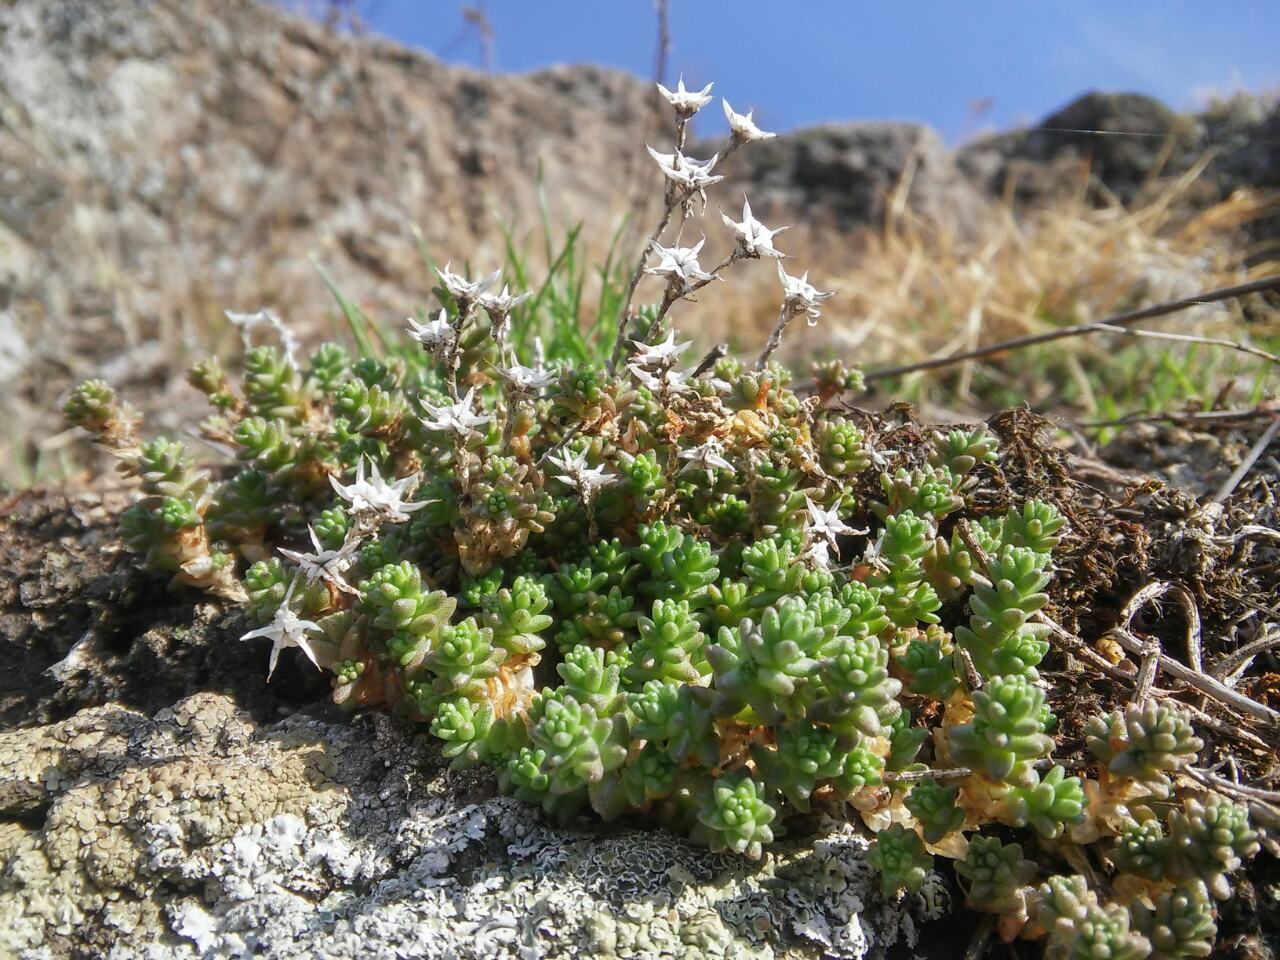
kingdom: Plantae
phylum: Tracheophyta
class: Magnoliopsida
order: Saxifragales
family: Crassulaceae
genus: Sedum
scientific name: Sedum acre
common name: Biting stonecrop
